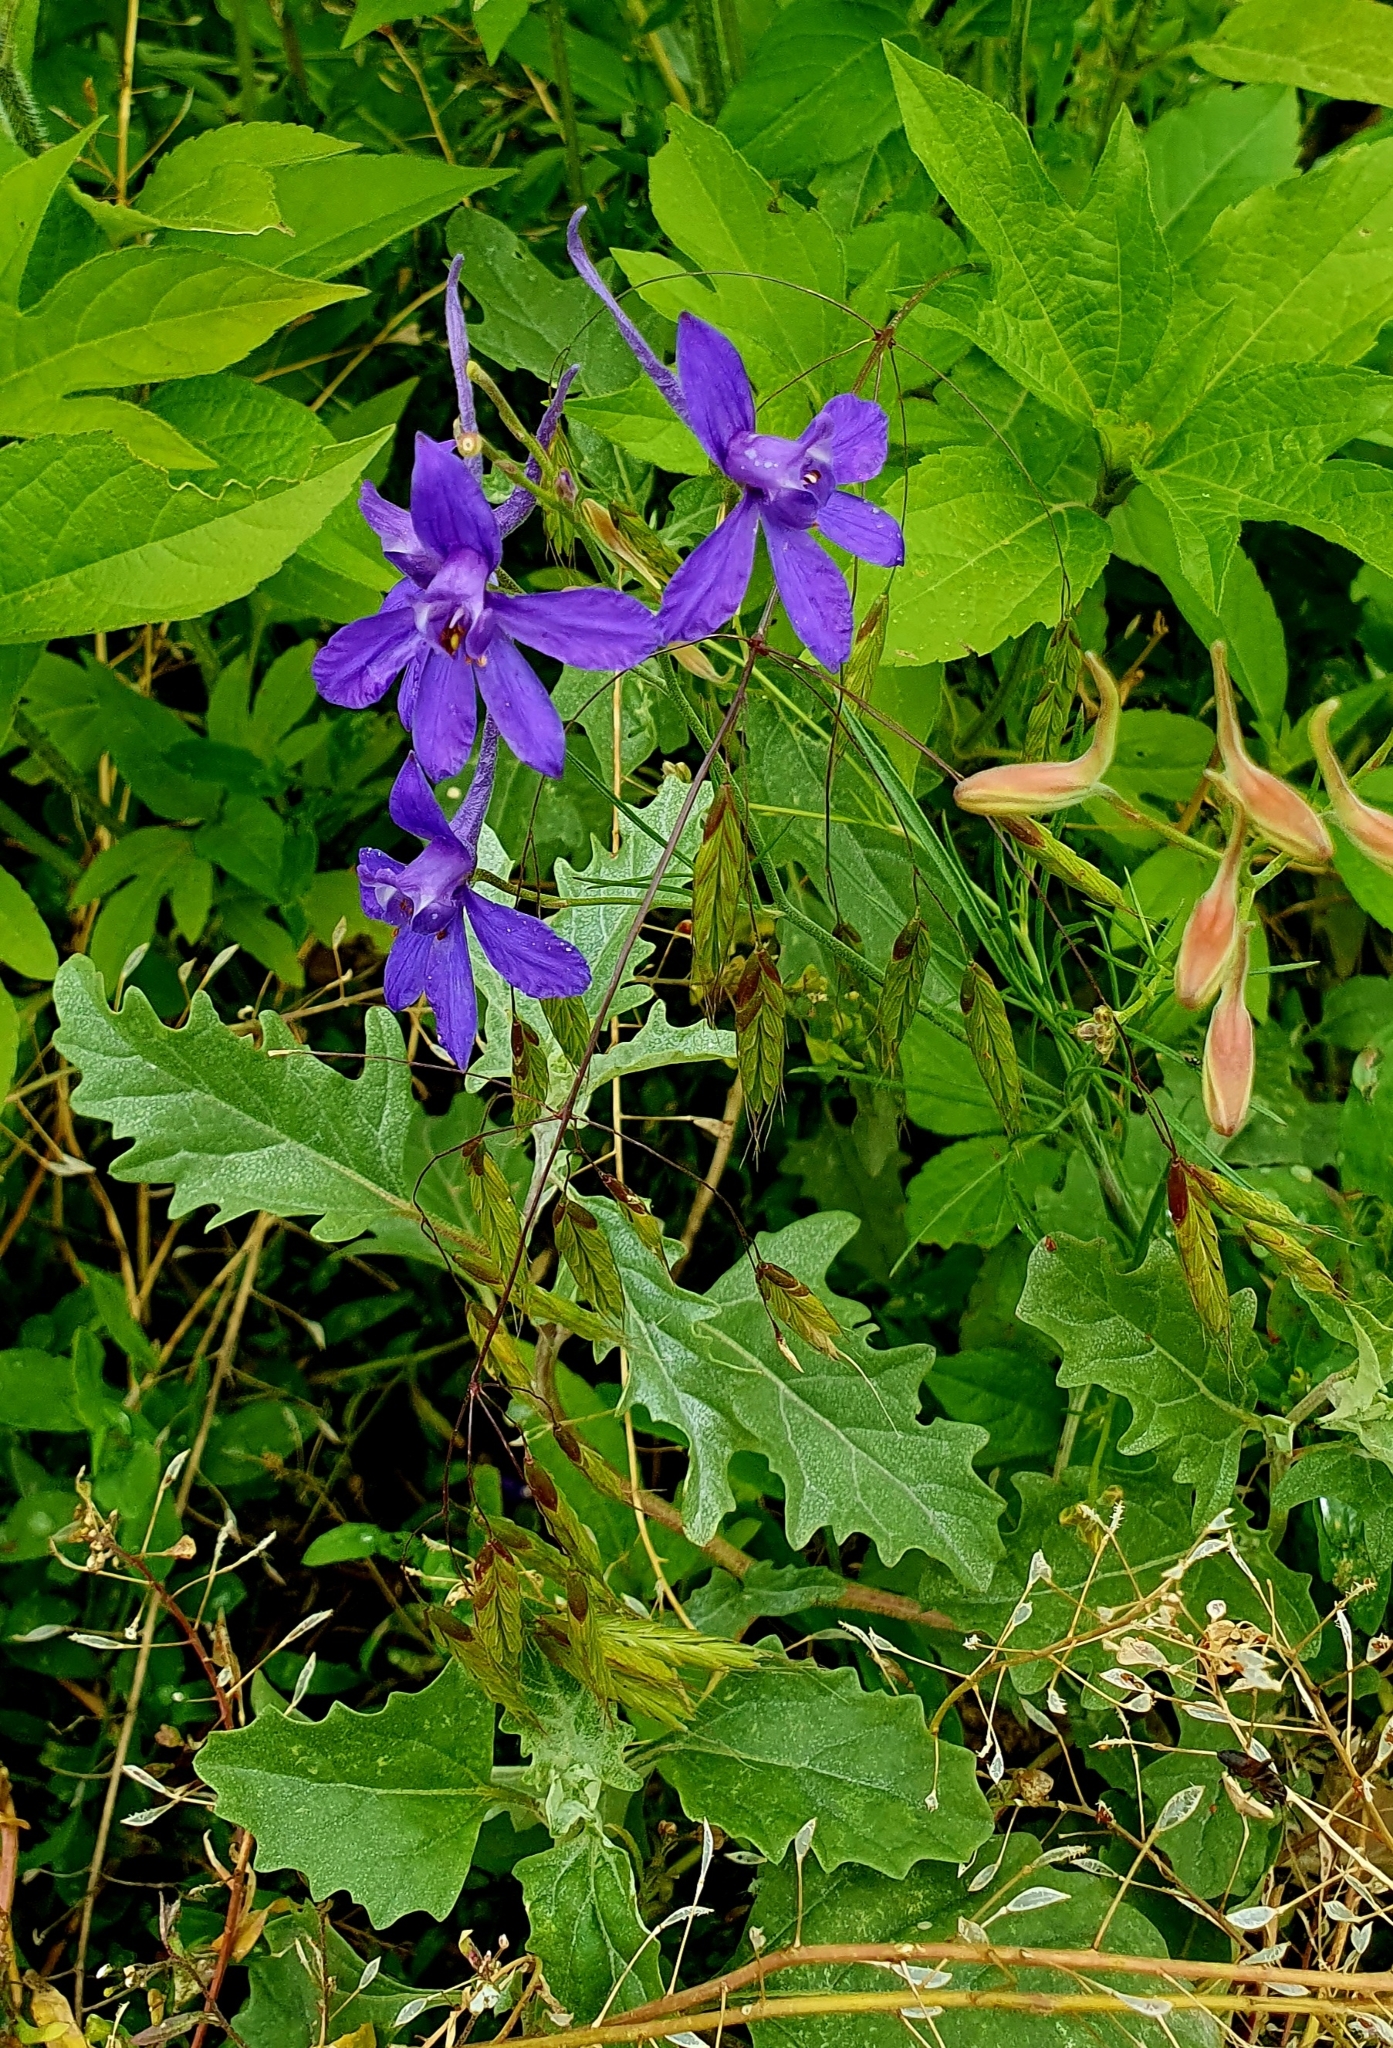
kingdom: Plantae
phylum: Tracheophyta
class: Magnoliopsida
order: Ranunculales
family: Ranunculaceae
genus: Delphinium
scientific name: Delphinium consolida
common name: Branching larkspur
